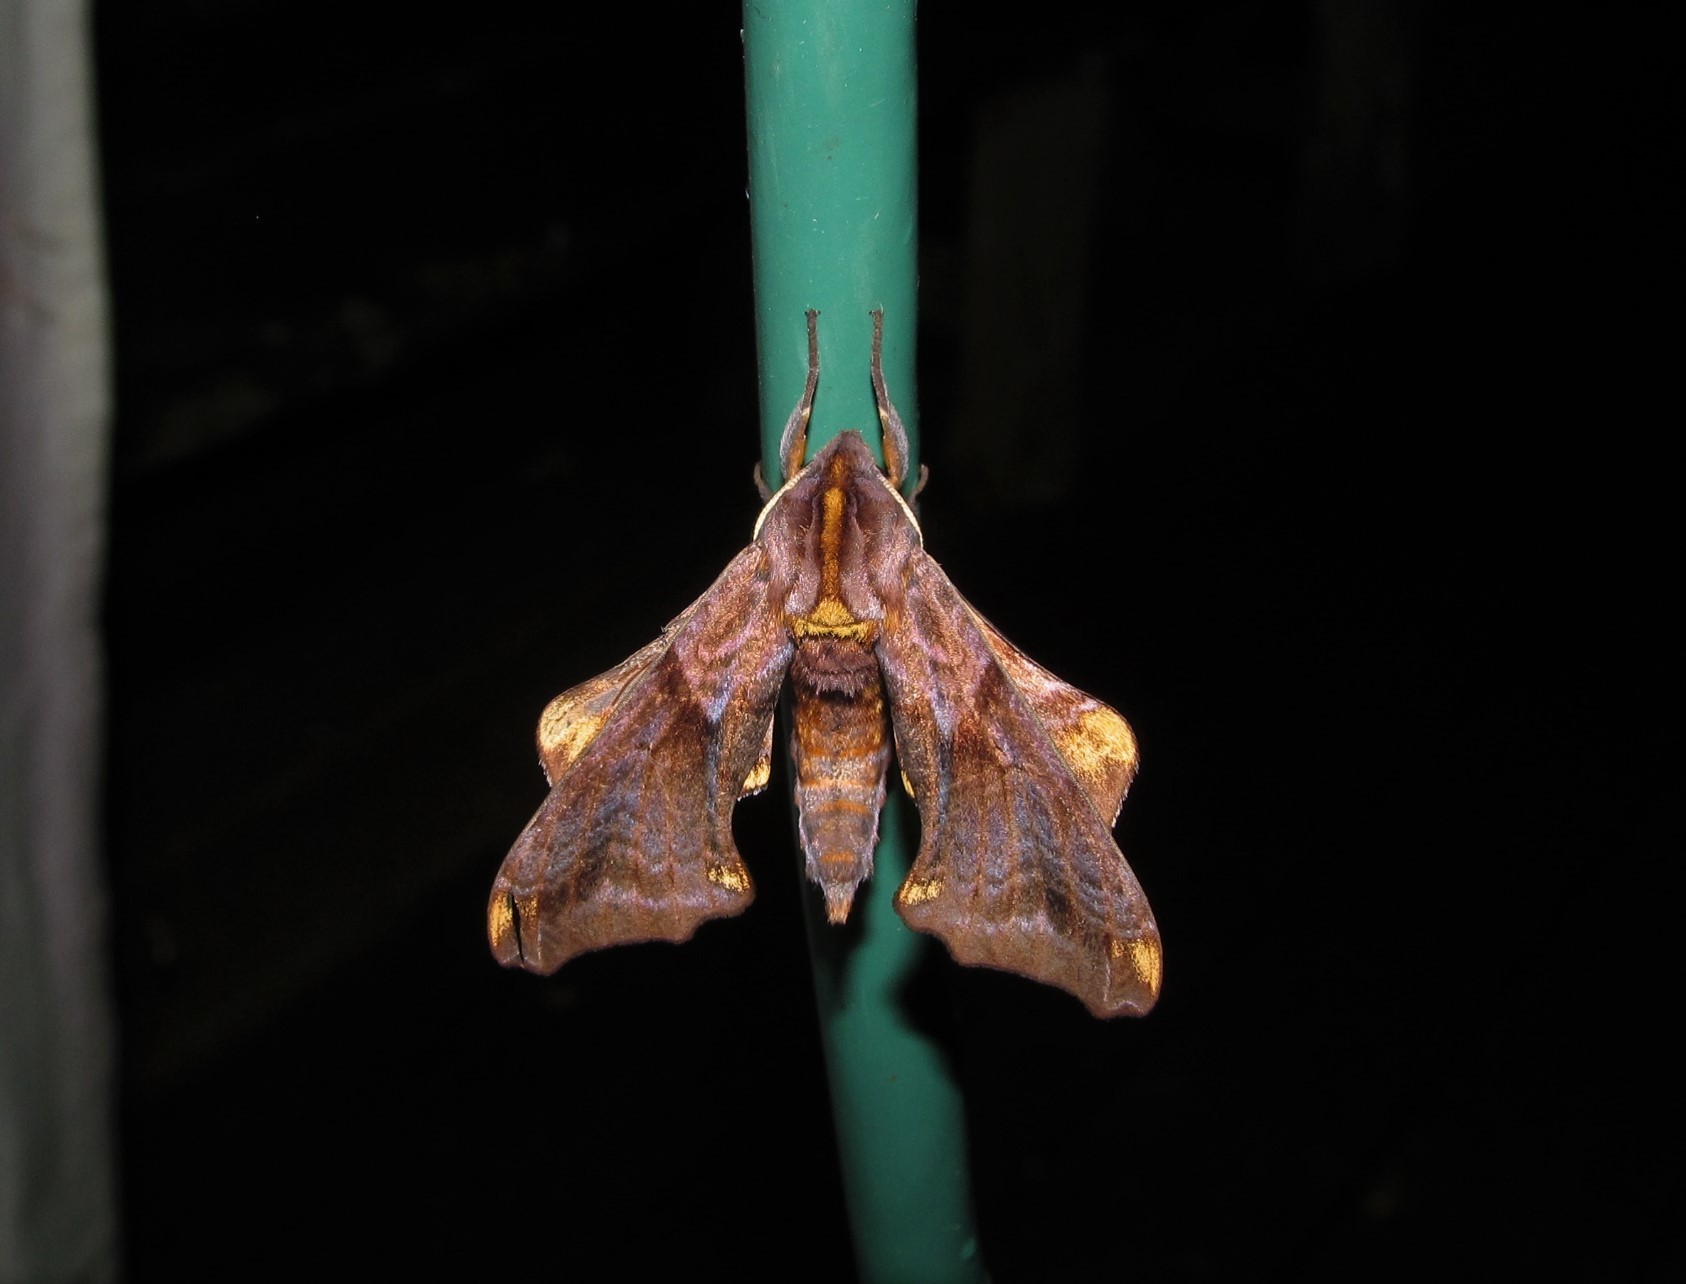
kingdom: Animalia
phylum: Arthropoda
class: Insecta
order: Lepidoptera
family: Sphingidae
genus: Paonias
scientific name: Paonias myops
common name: Small-eyed sphinx
